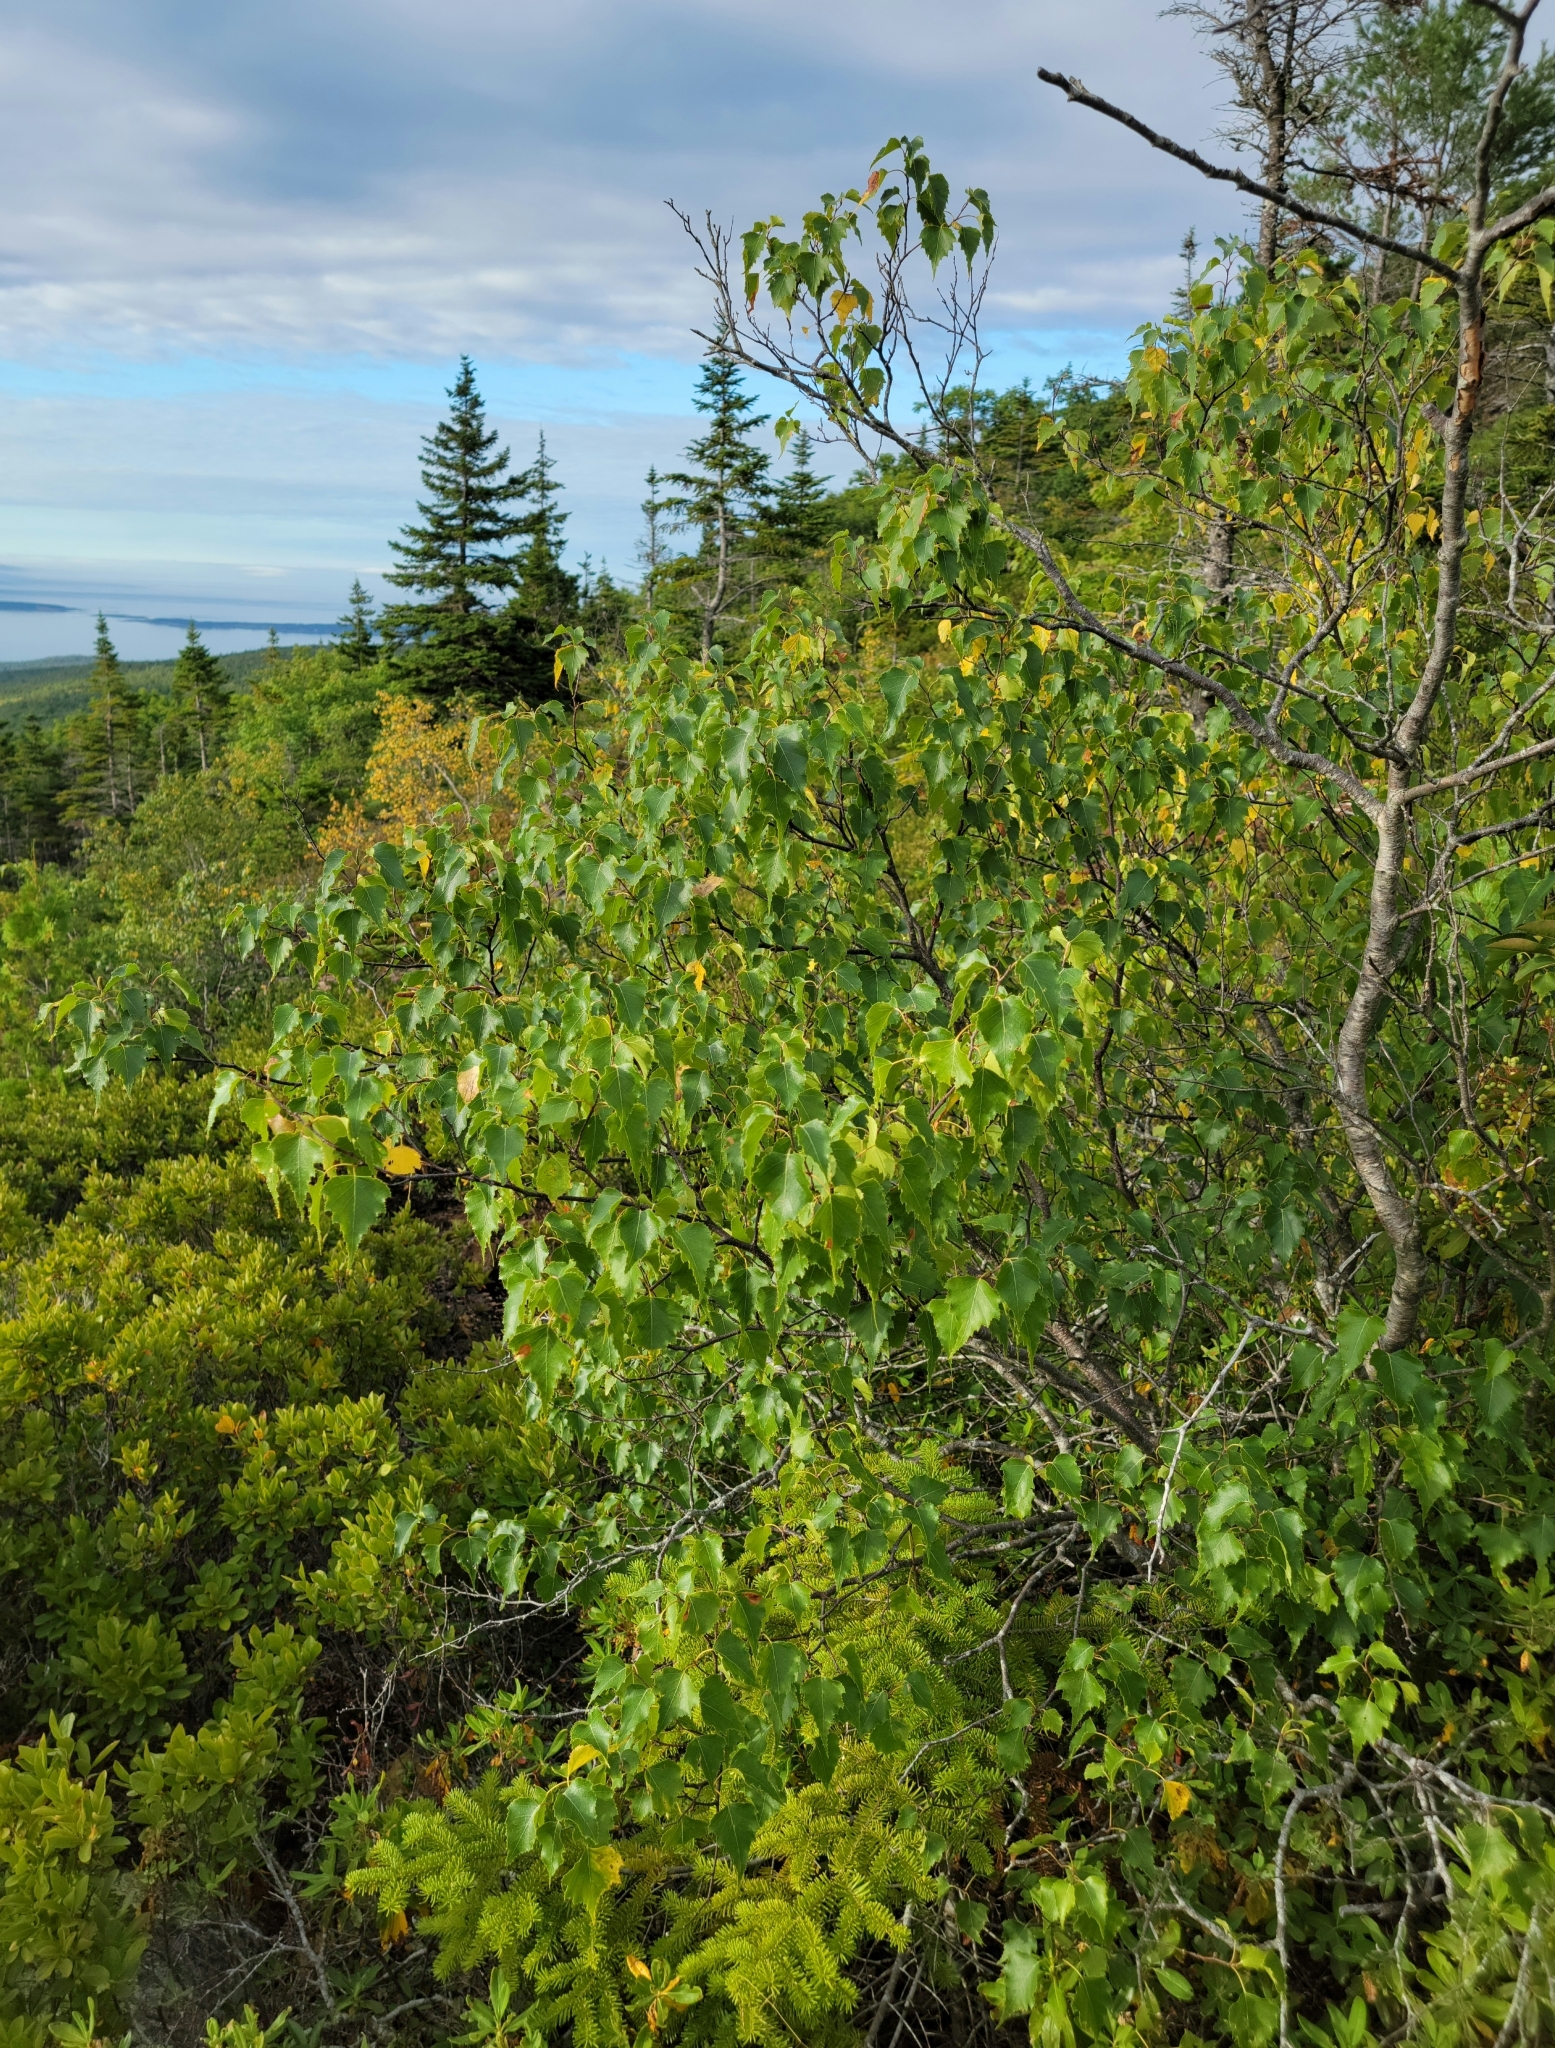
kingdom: Plantae
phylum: Tracheophyta
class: Magnoliopsida
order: Fagales
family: Betulaceae
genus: Betula
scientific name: Betula populifolia
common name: Fire birch
